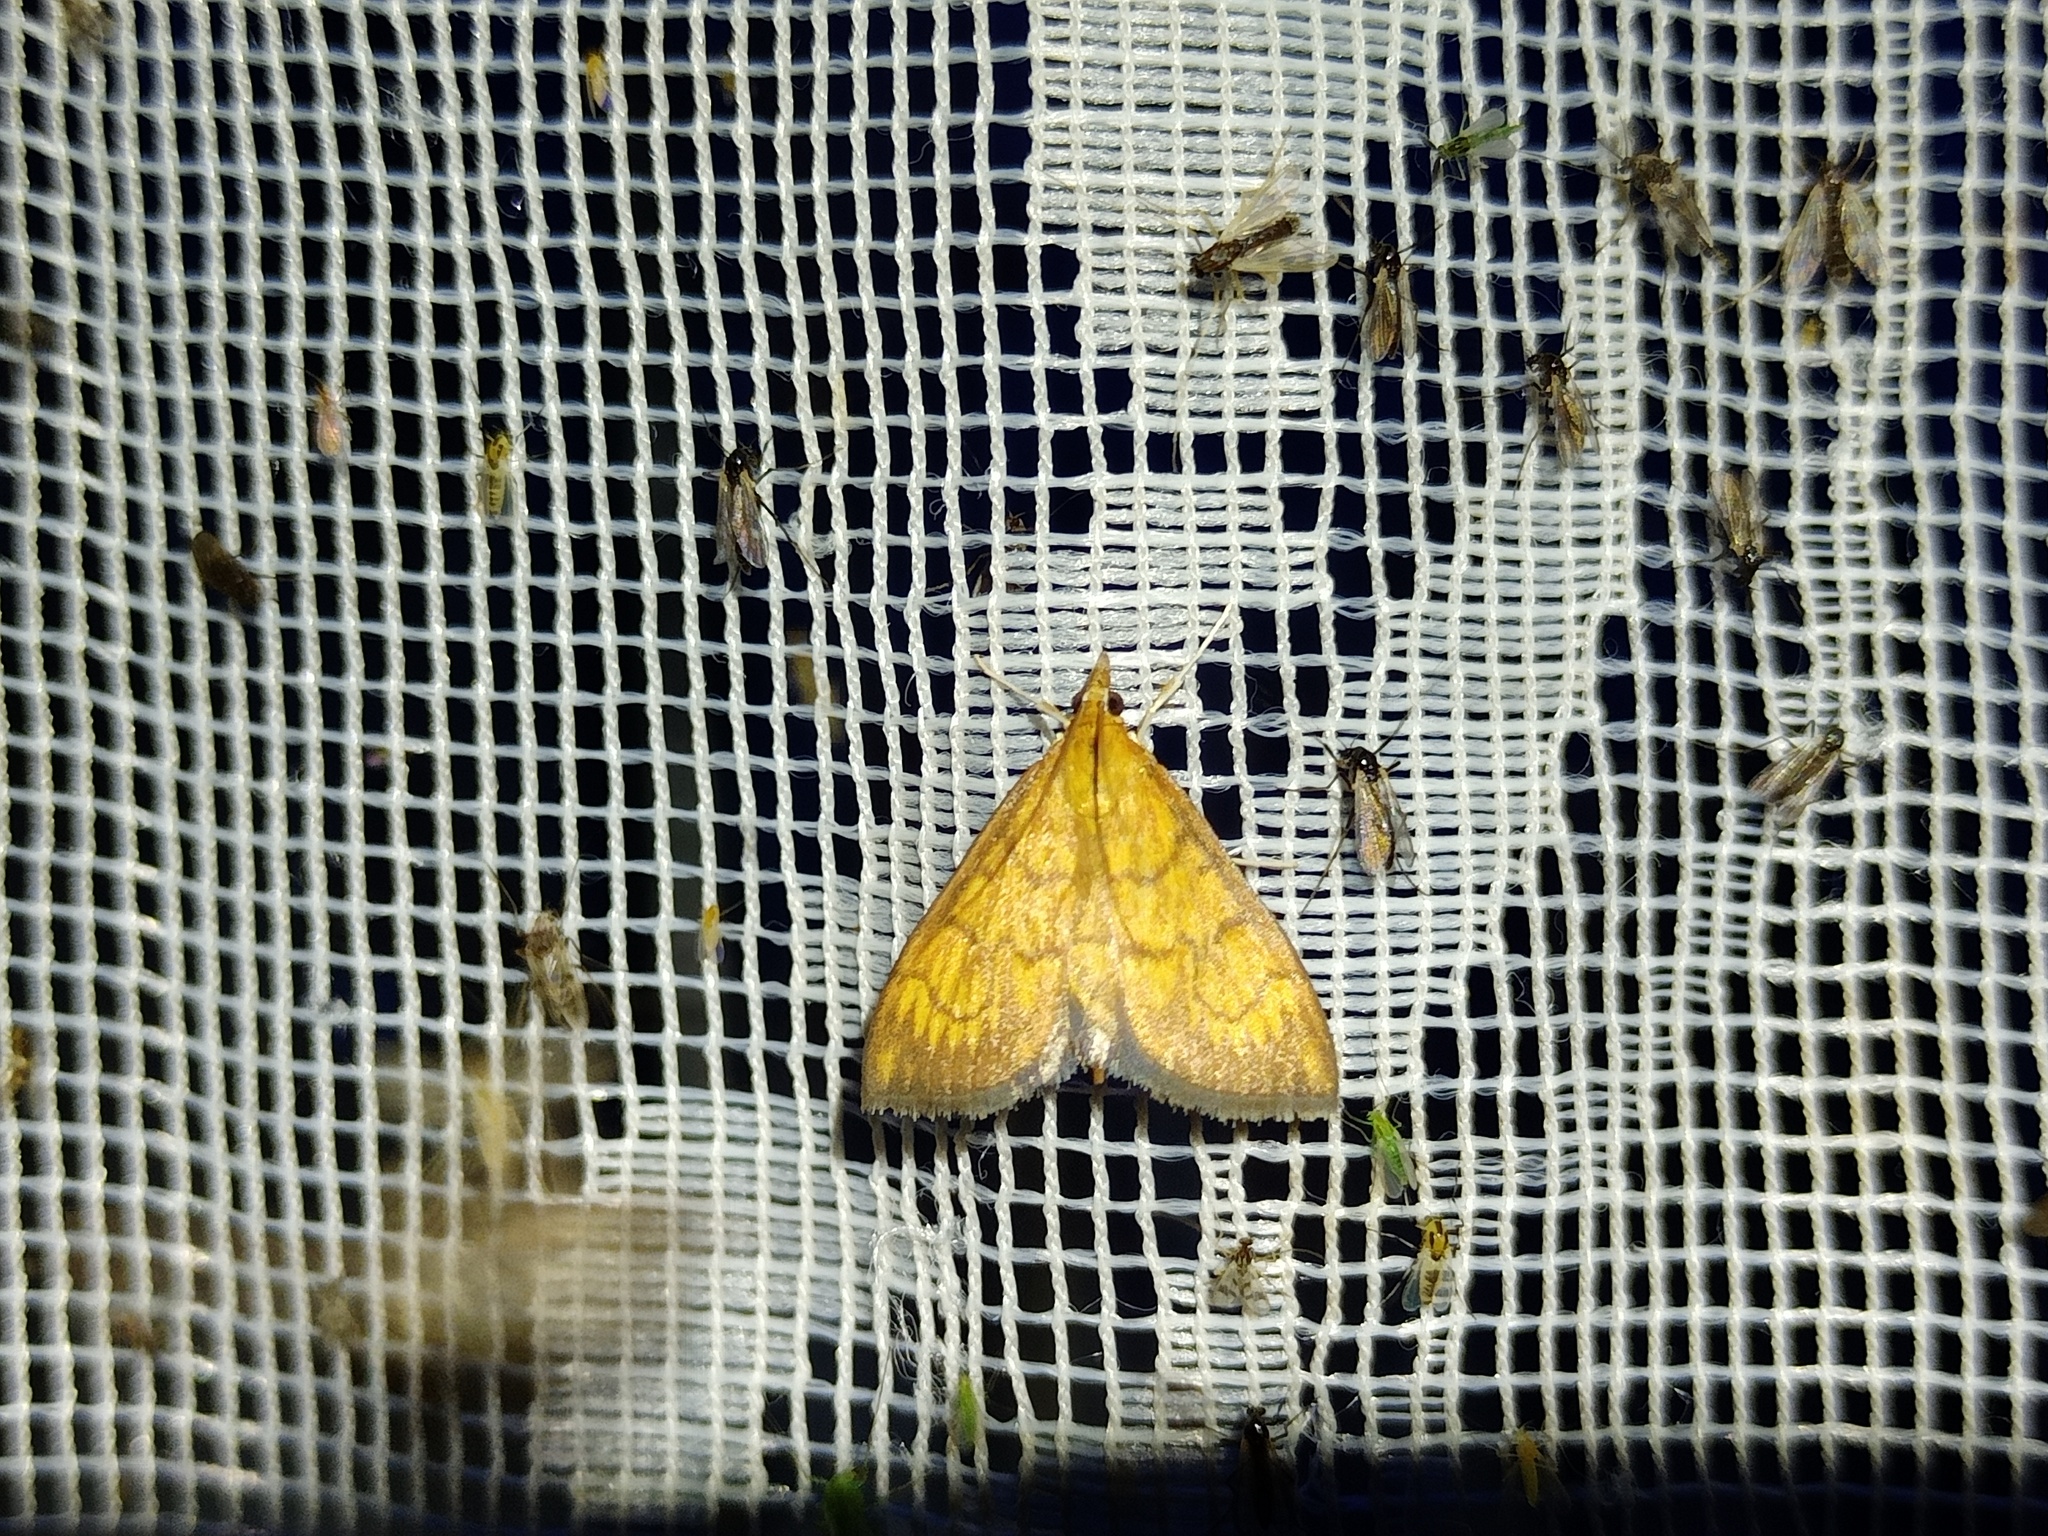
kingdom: Animalia
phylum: Arthropoda
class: Insecta
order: Lepidoptera
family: Crambidae
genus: Ecpyrrhorrhoe
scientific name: Ecpyrrhorrhoe rubiginalis
